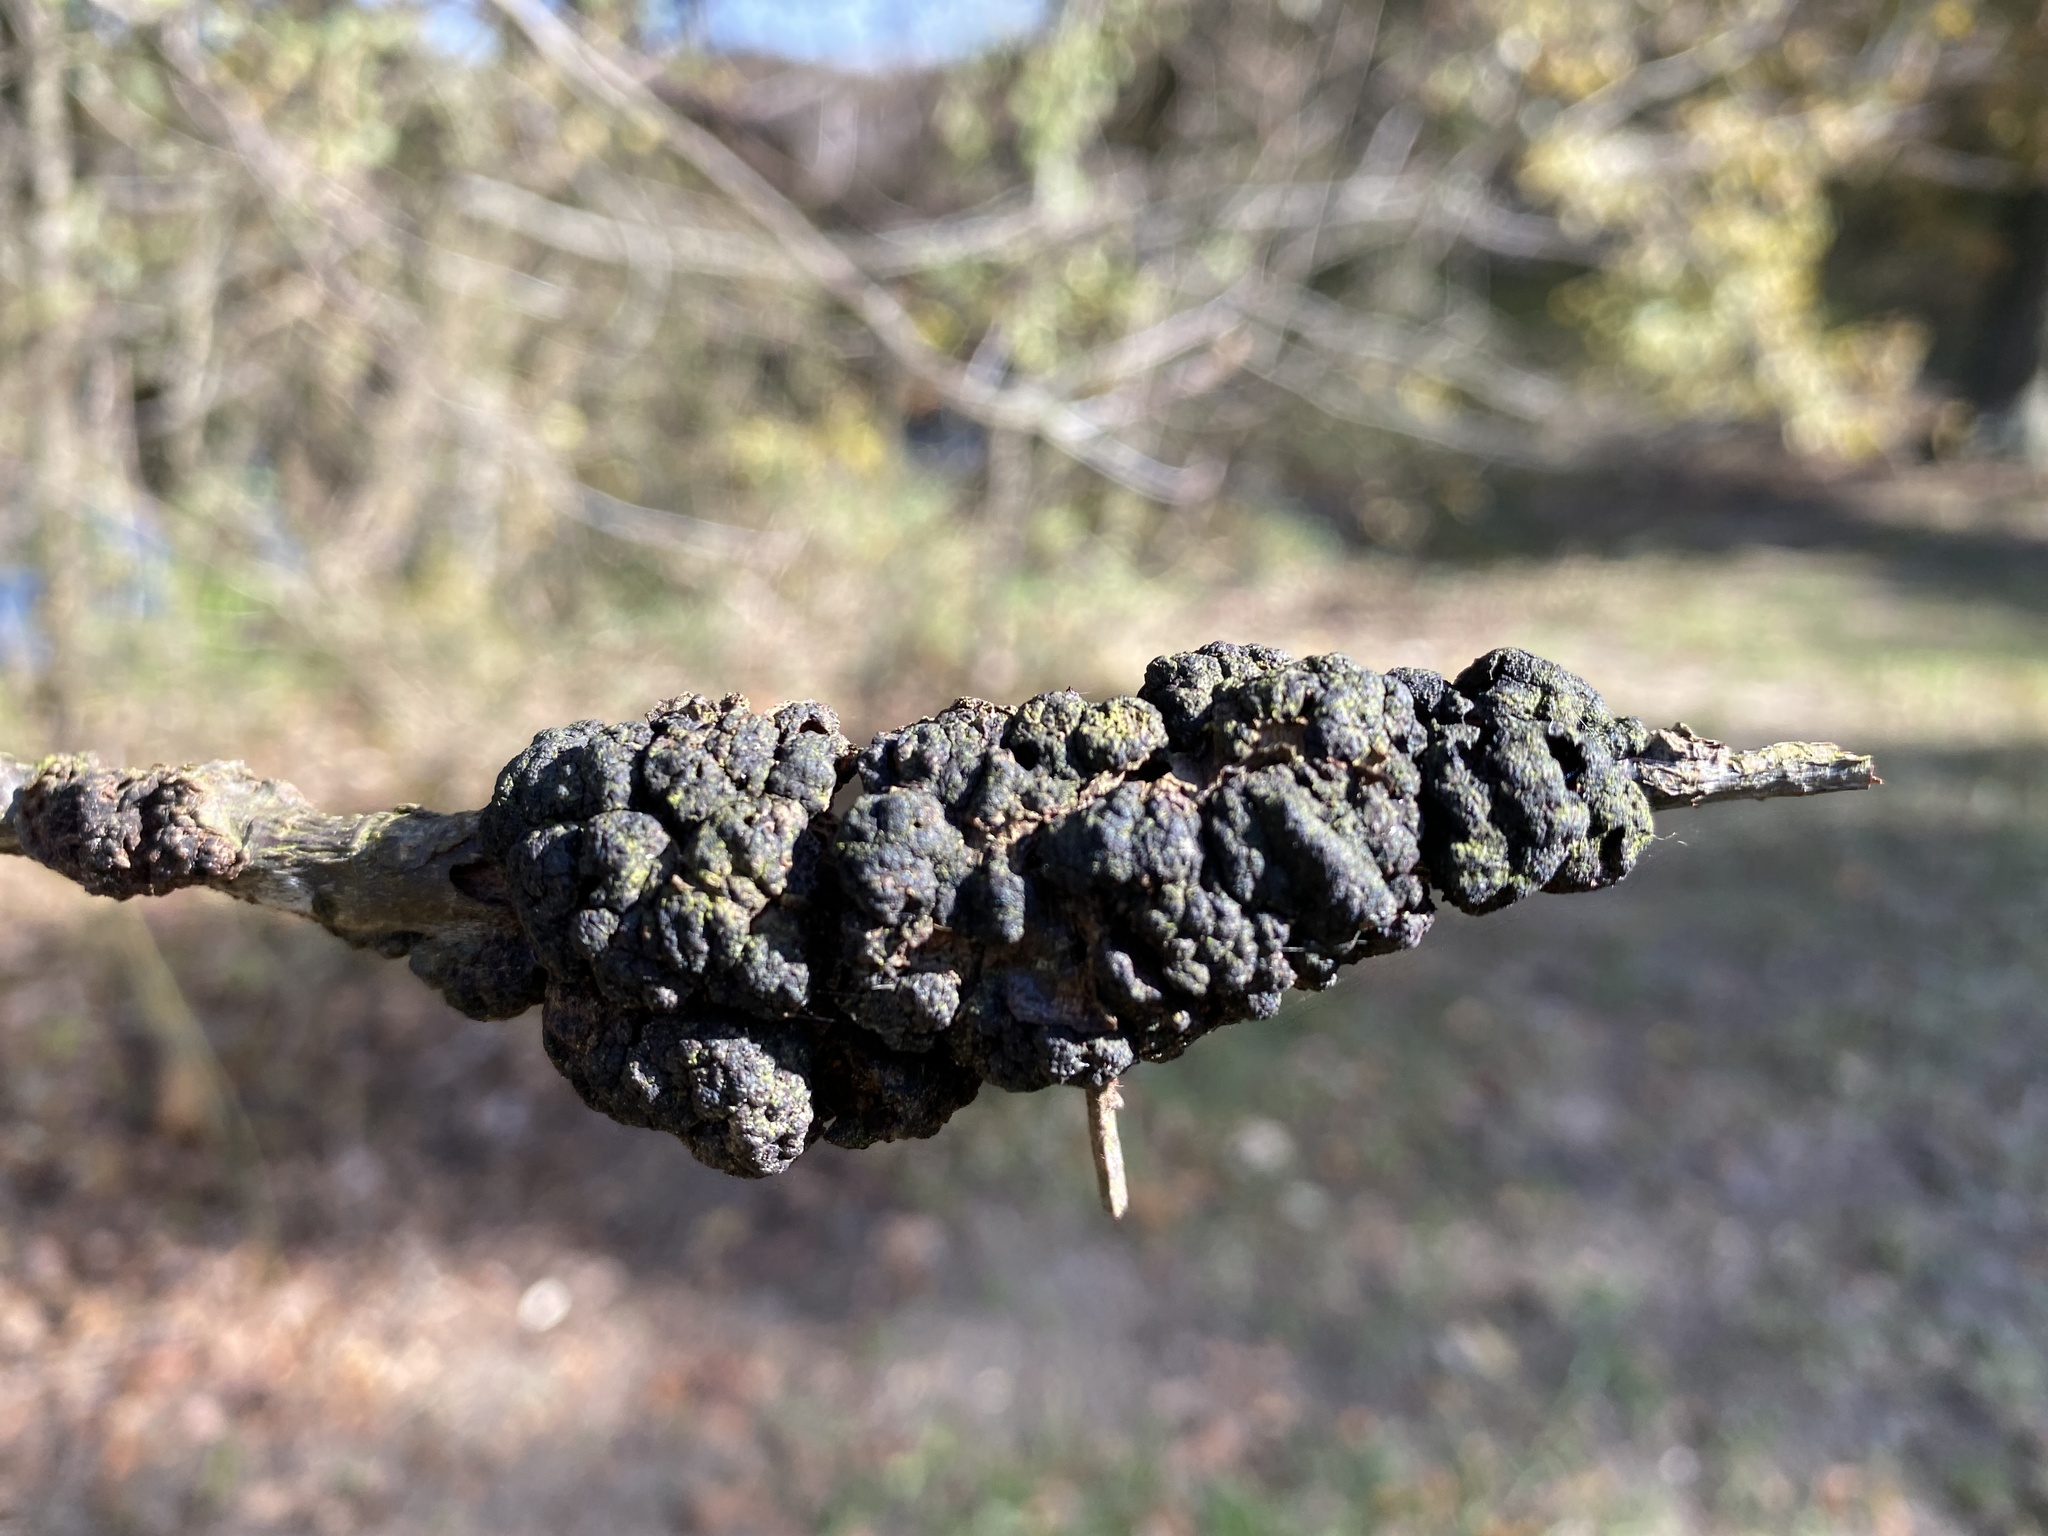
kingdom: Fungi
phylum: Ascomycota
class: Dothideomycetes
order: Venturiales
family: Venturiaceae
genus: Apiosporina
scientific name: Apiosporina morbosa
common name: Black knot
